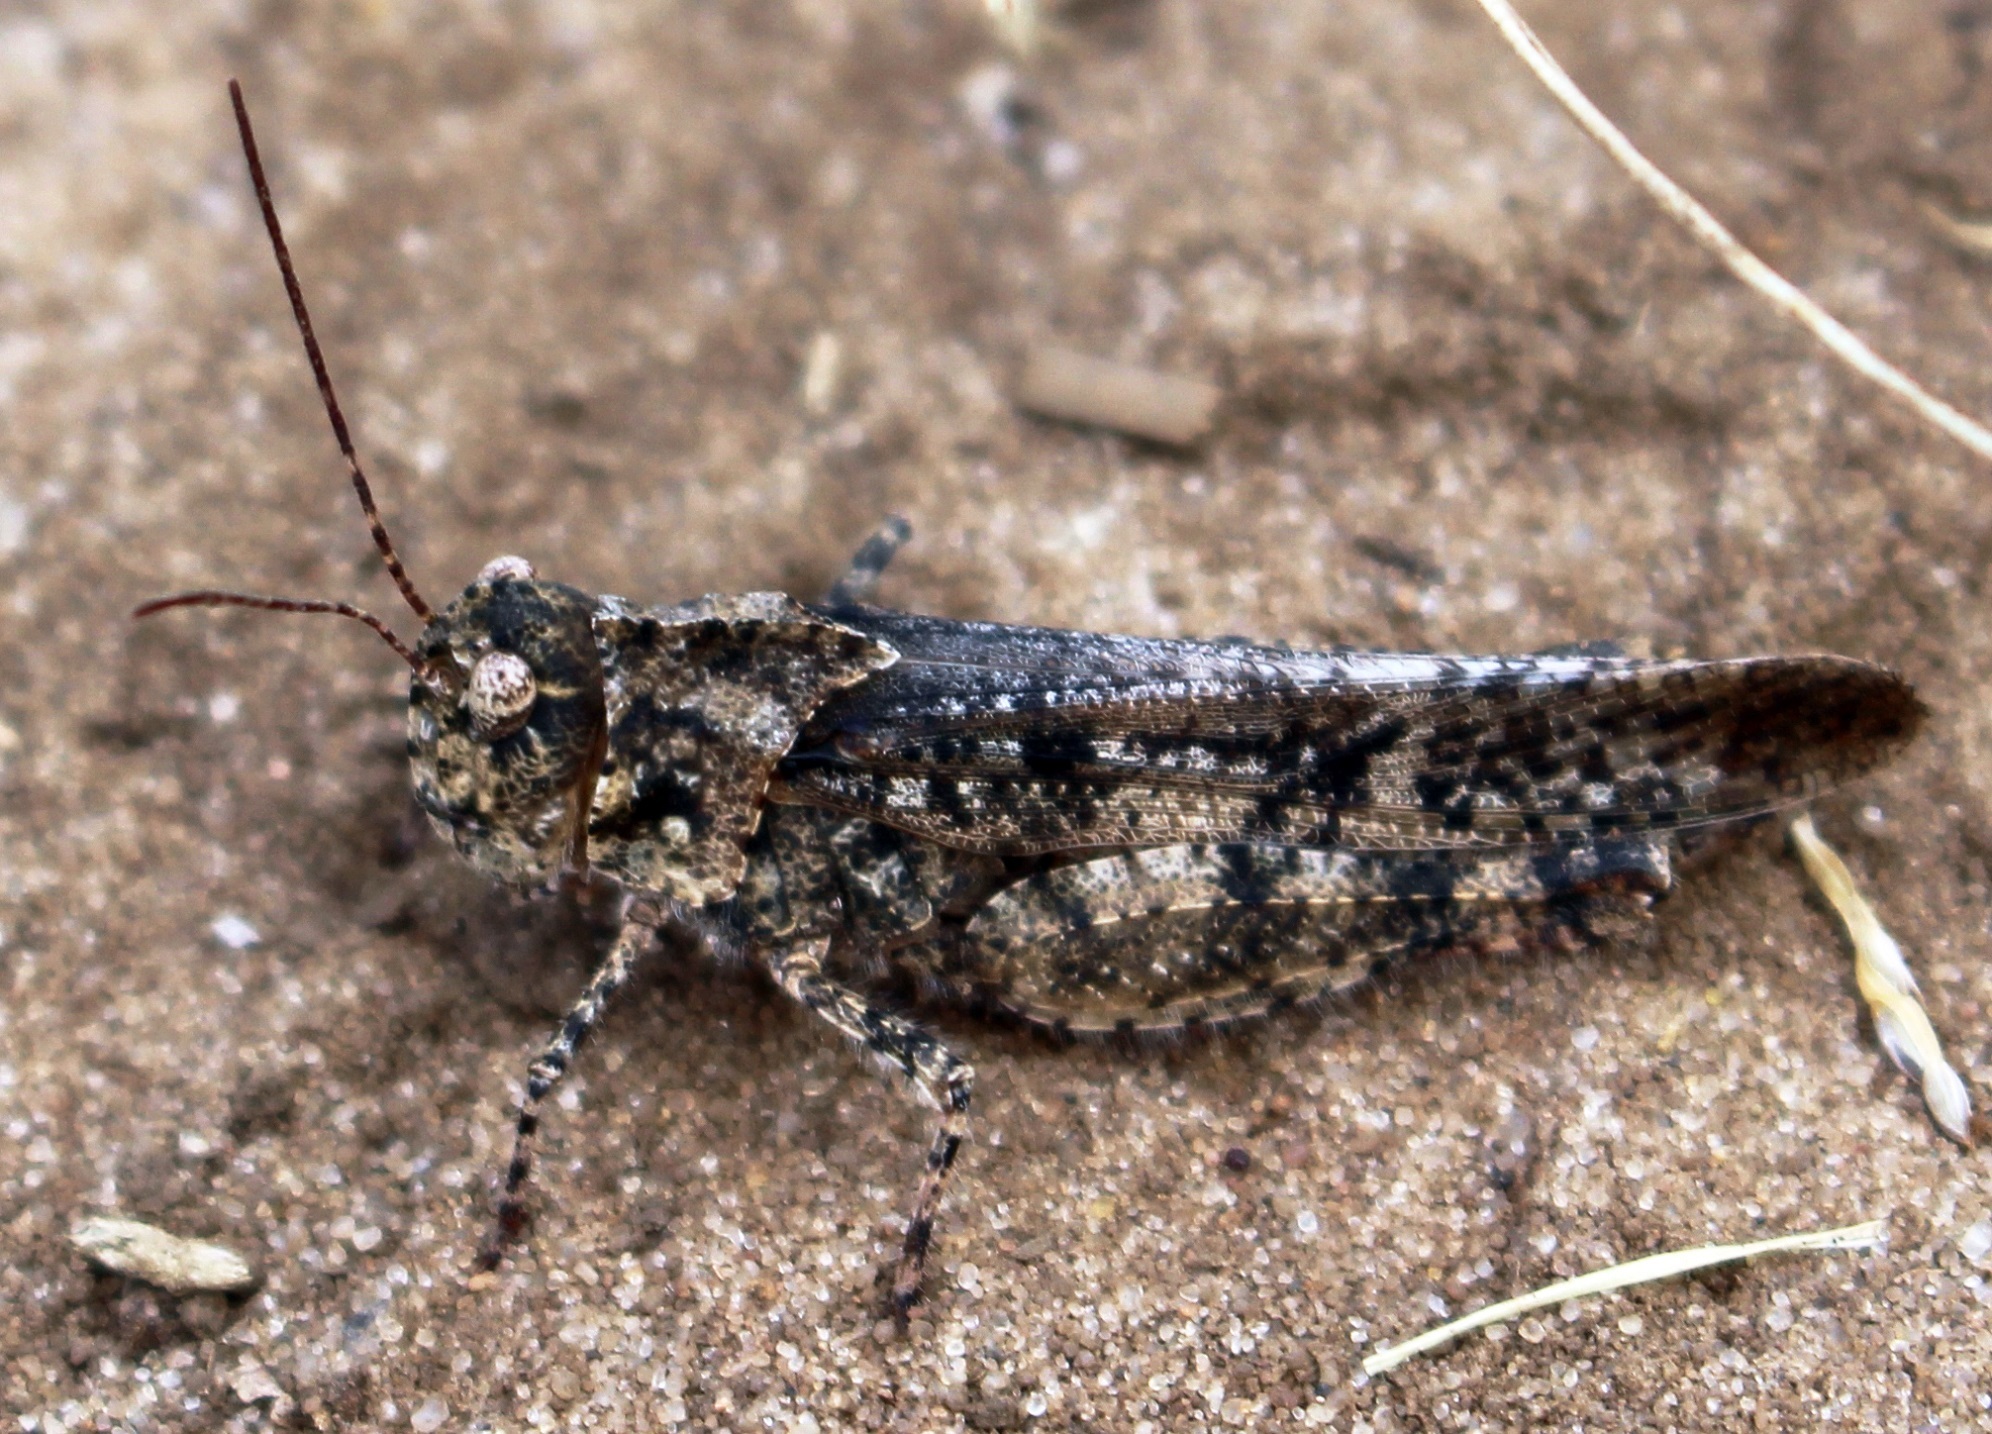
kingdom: Animalia
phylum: Arthropoda
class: Insecta
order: Orthoptera
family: Acrididae
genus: Spharagemon
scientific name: Spharagemon collare
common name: Mottled sand grasshopper
